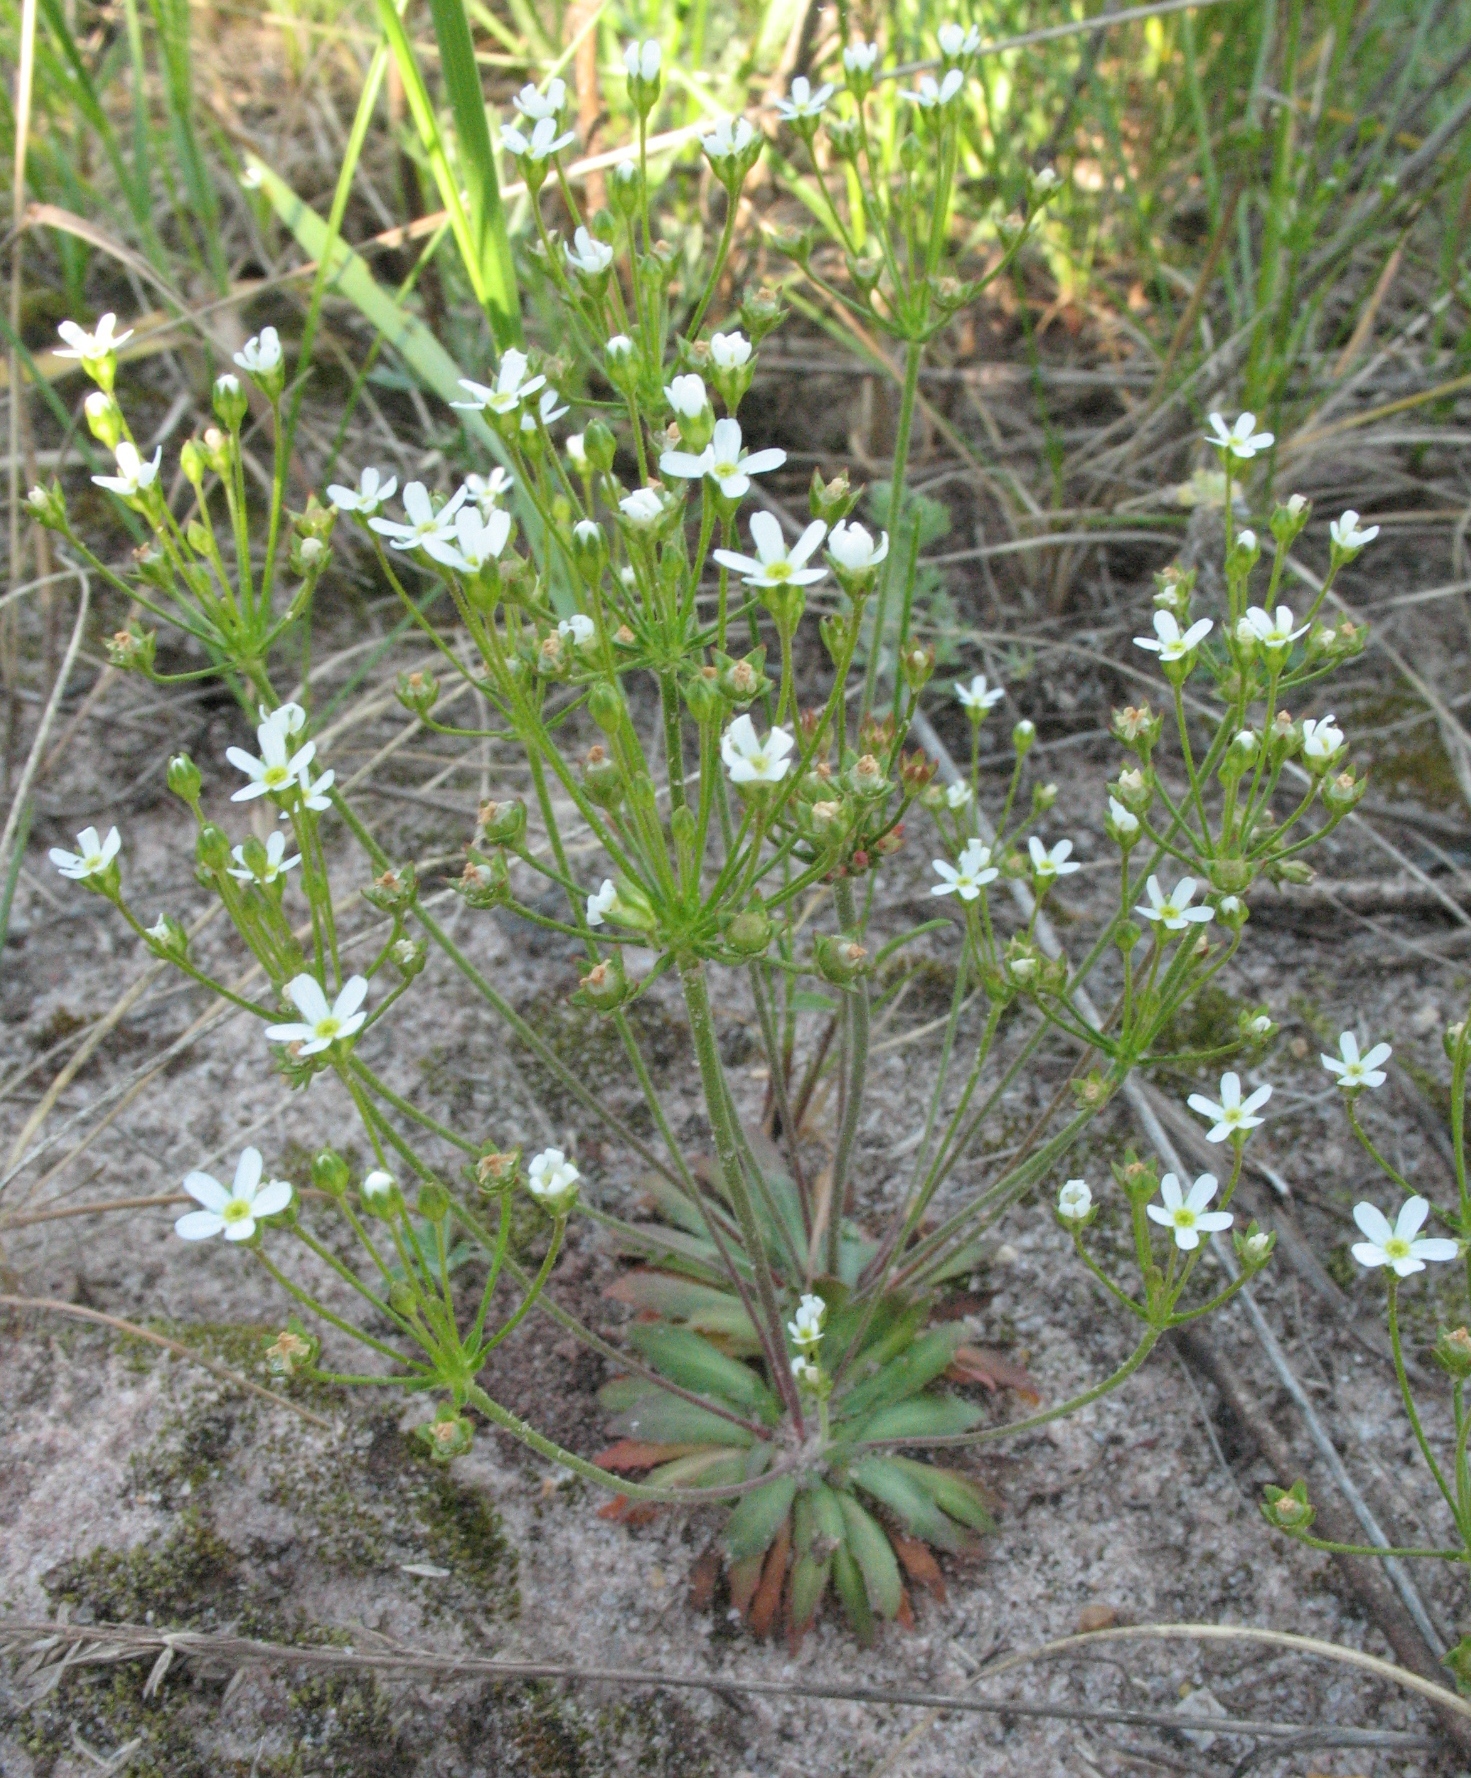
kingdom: Plantae
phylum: Tracheophyta
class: Magnoliopsida
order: Ericales
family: Primulaceae
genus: Androsace
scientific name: Androsace septentrionalis
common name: Hairy northern fairy-candelabra
